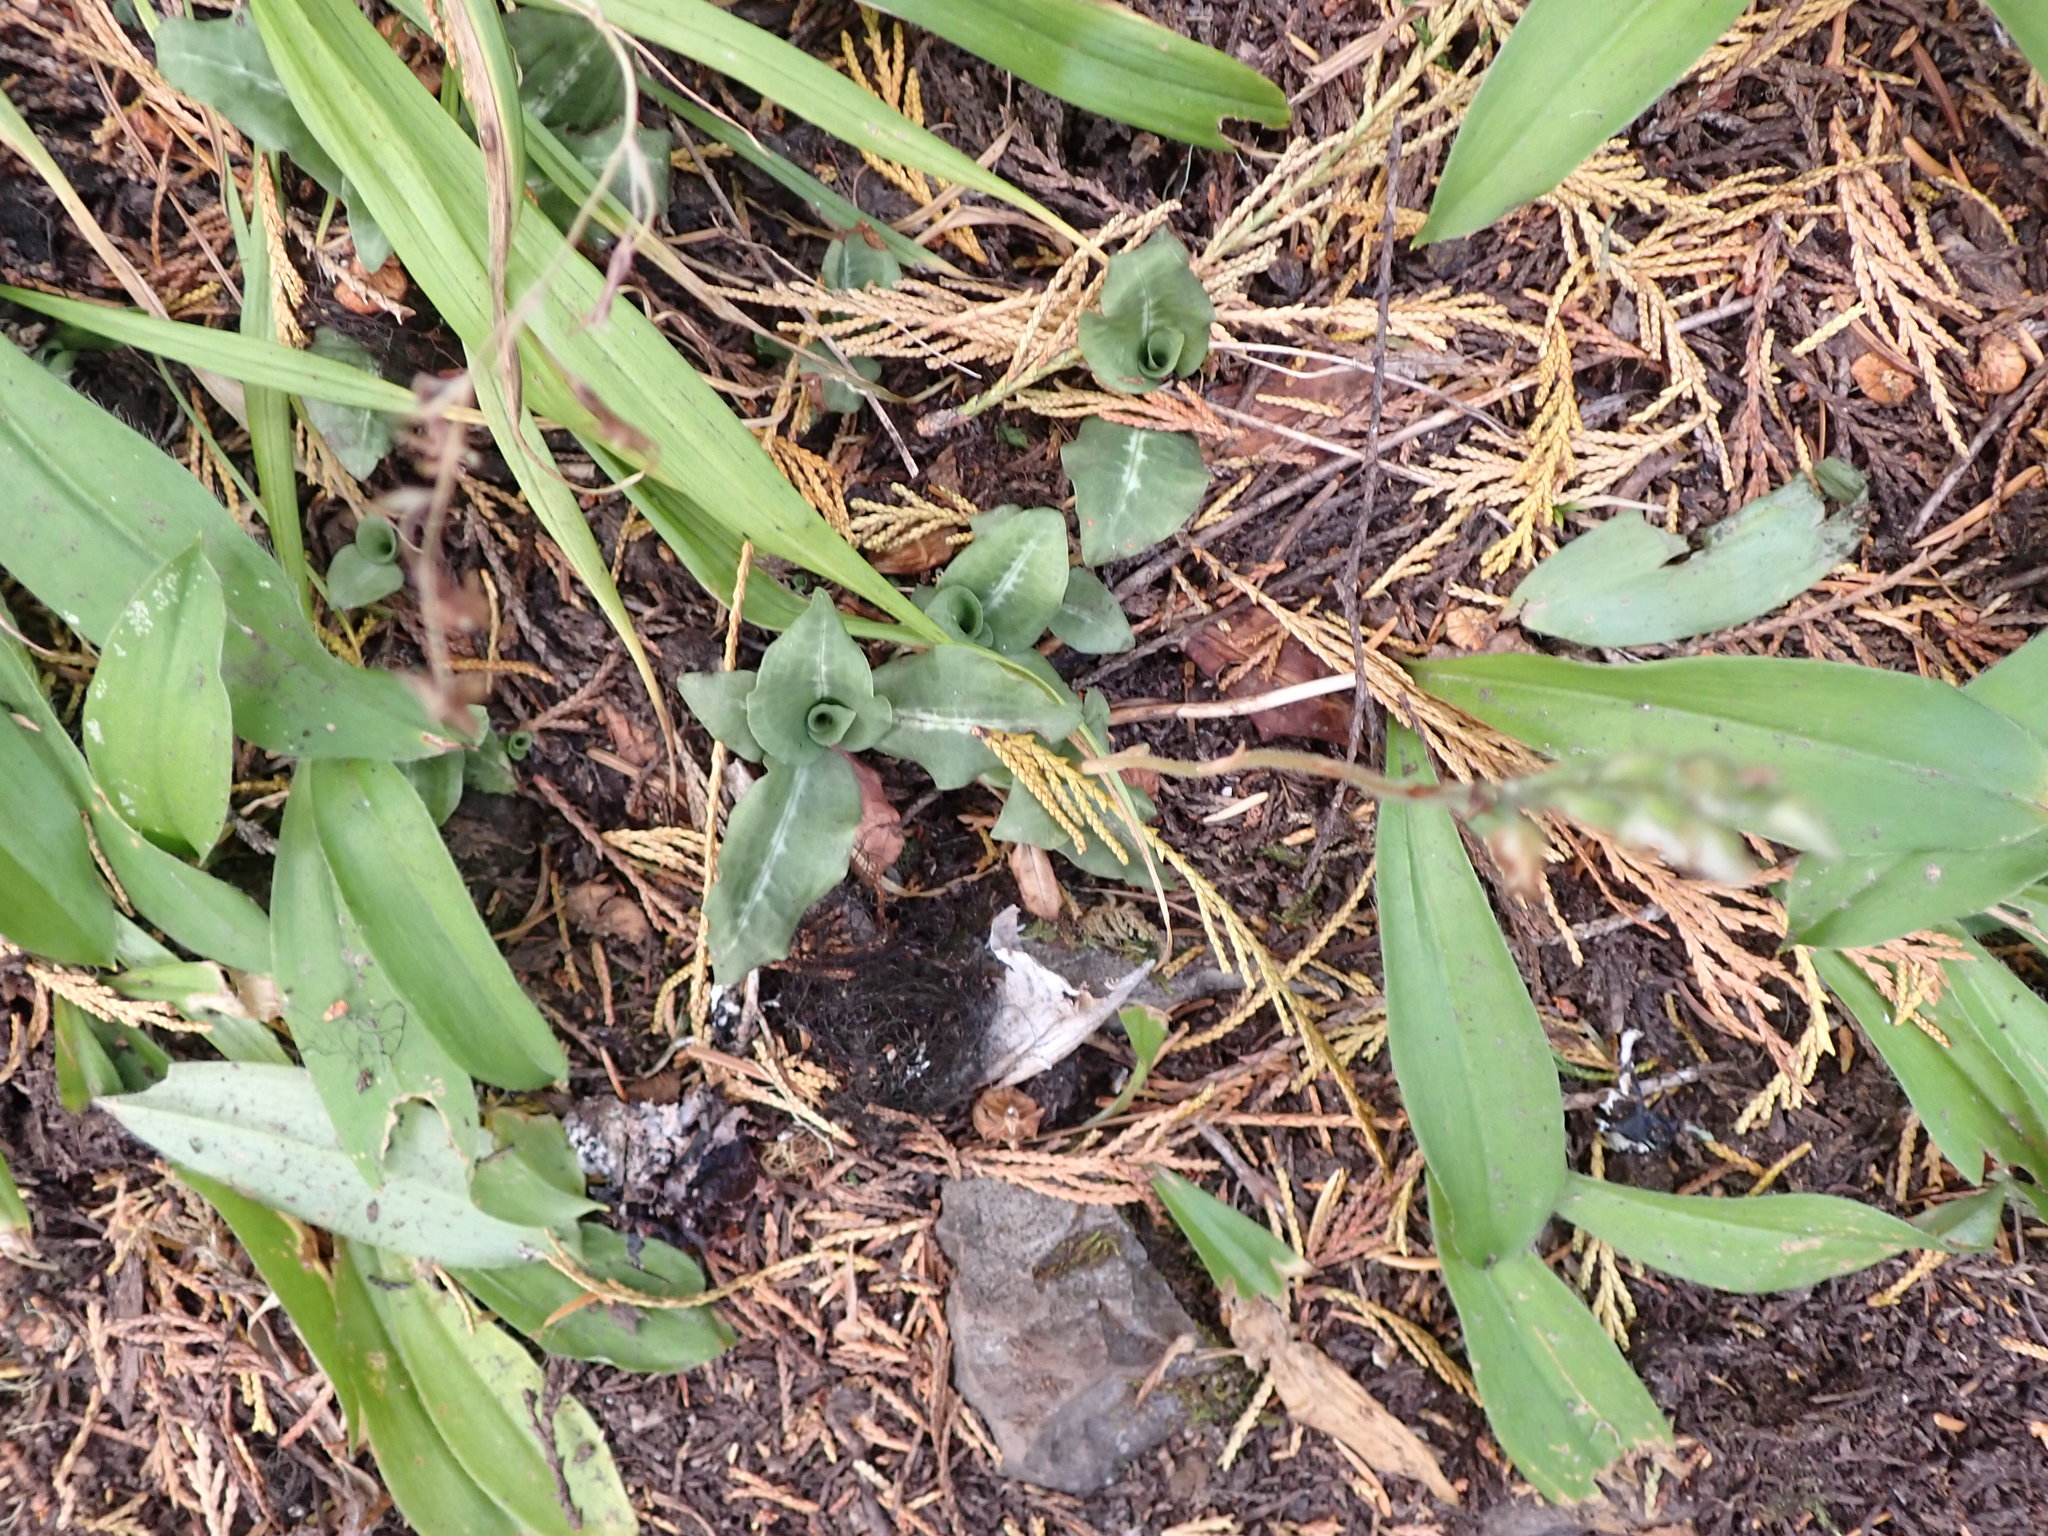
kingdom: Plantae
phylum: Tracheophyta
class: Liliopsida
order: Asparagales
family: Orchidaceae
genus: Goodyera
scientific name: Goodyera oblongifolia
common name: Giant rattlesnake-plantain
